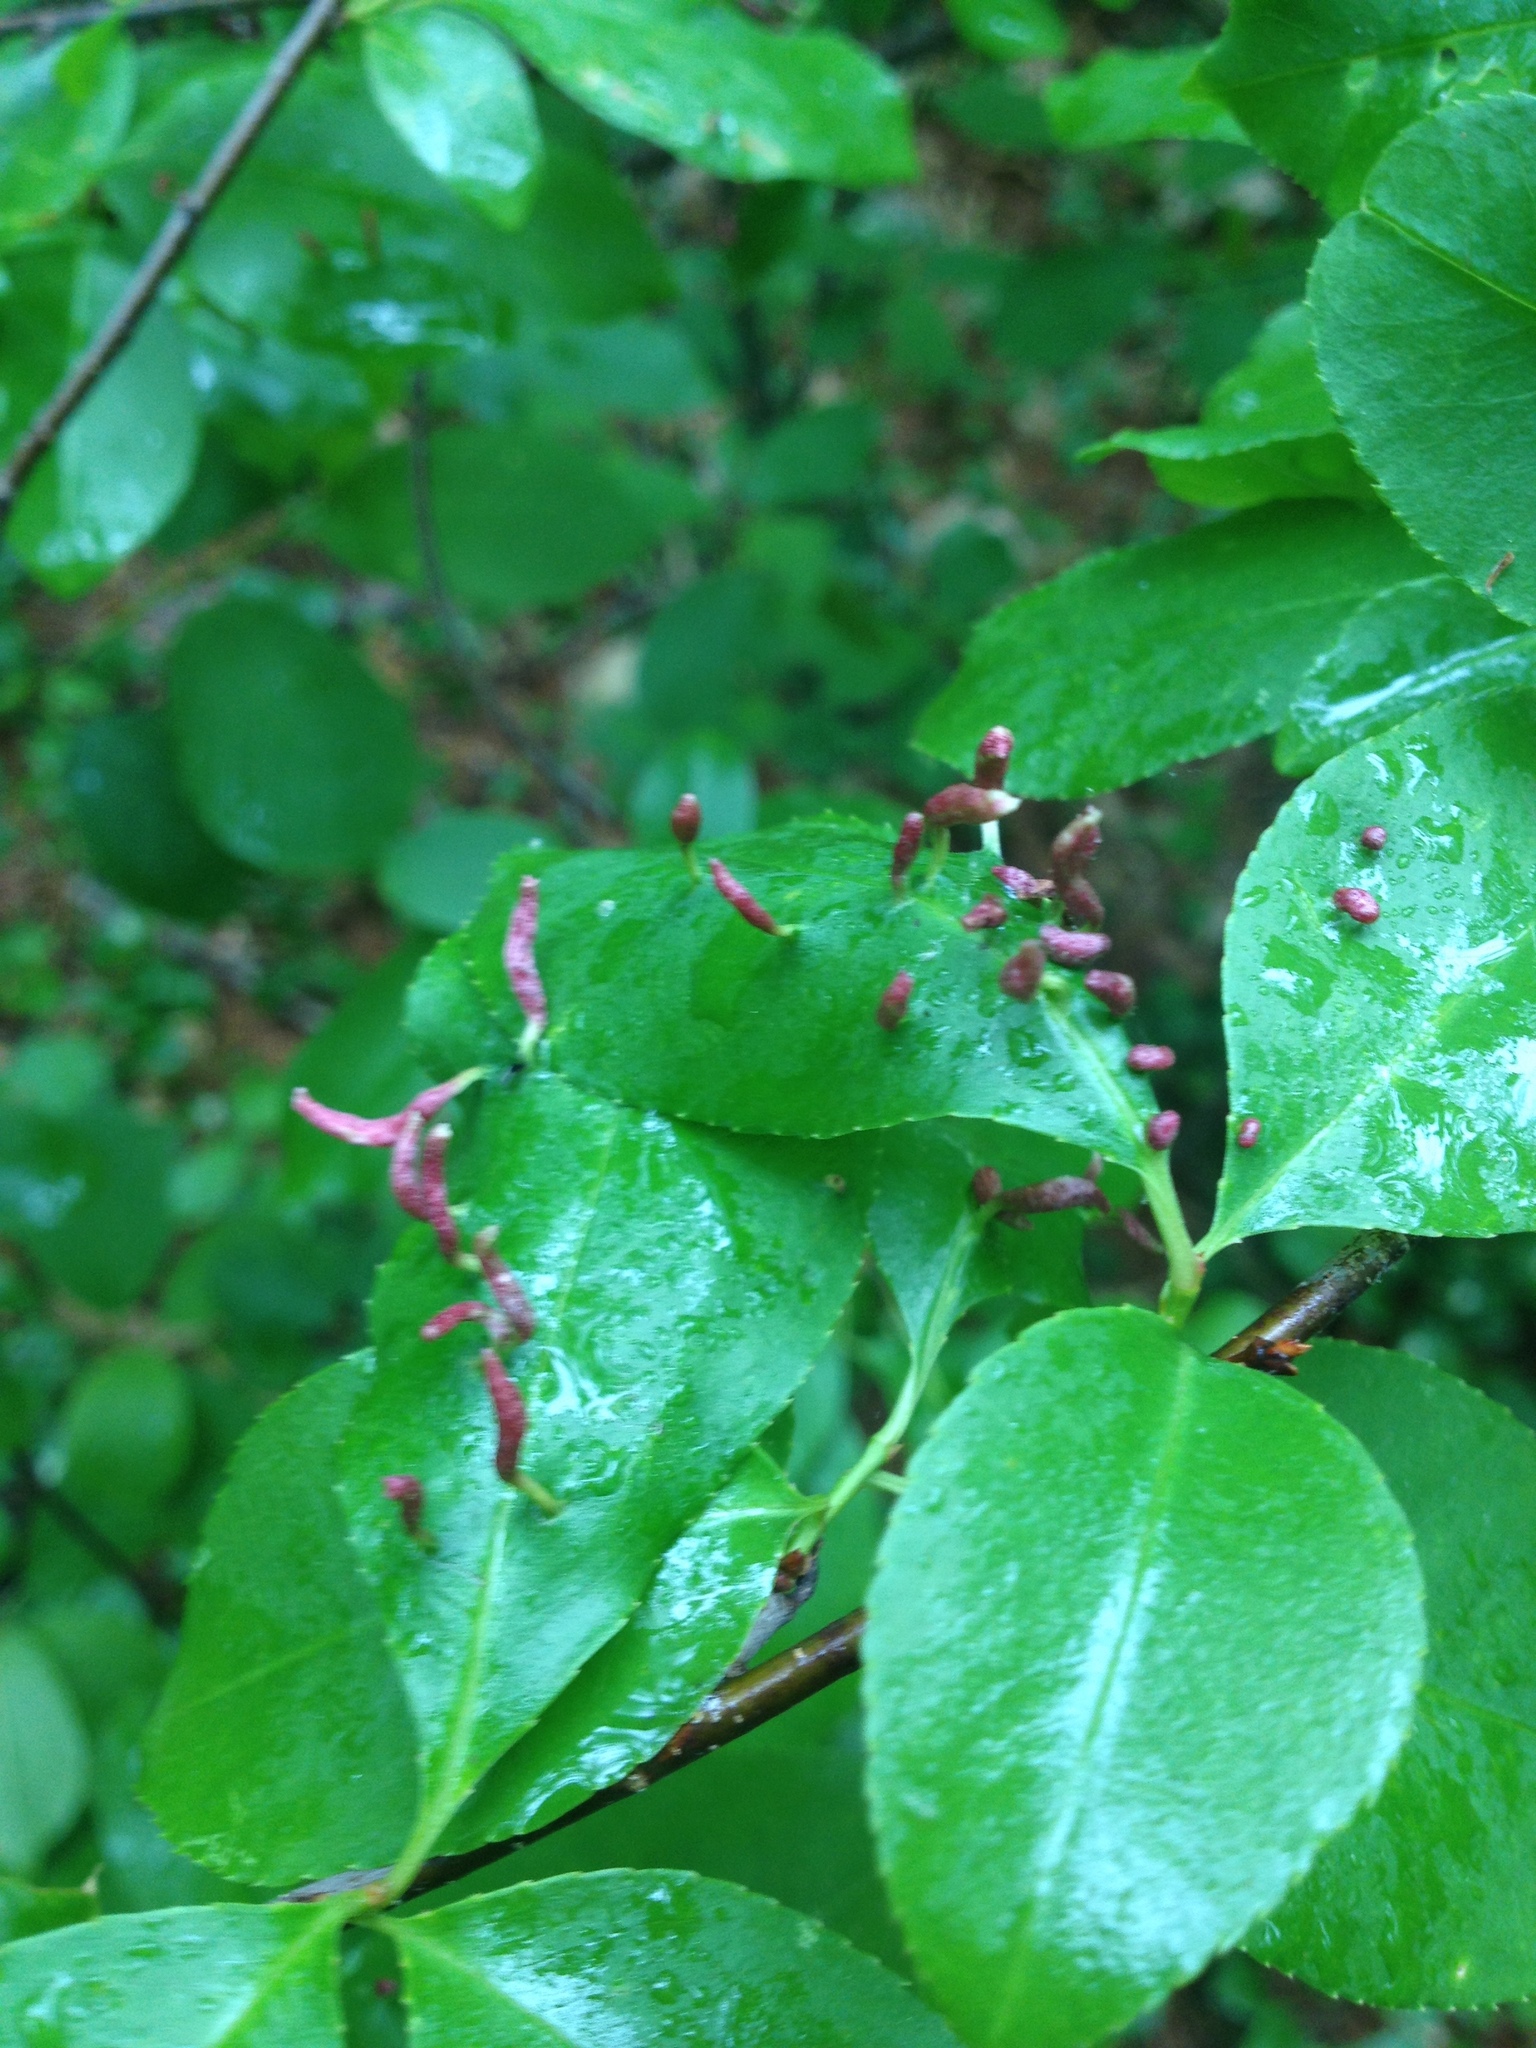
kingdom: Animalia
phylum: Arthropoda
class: Arachnida
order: Trombidiformes
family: Eriophyidae
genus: Eriophyes
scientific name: Eriophyes
